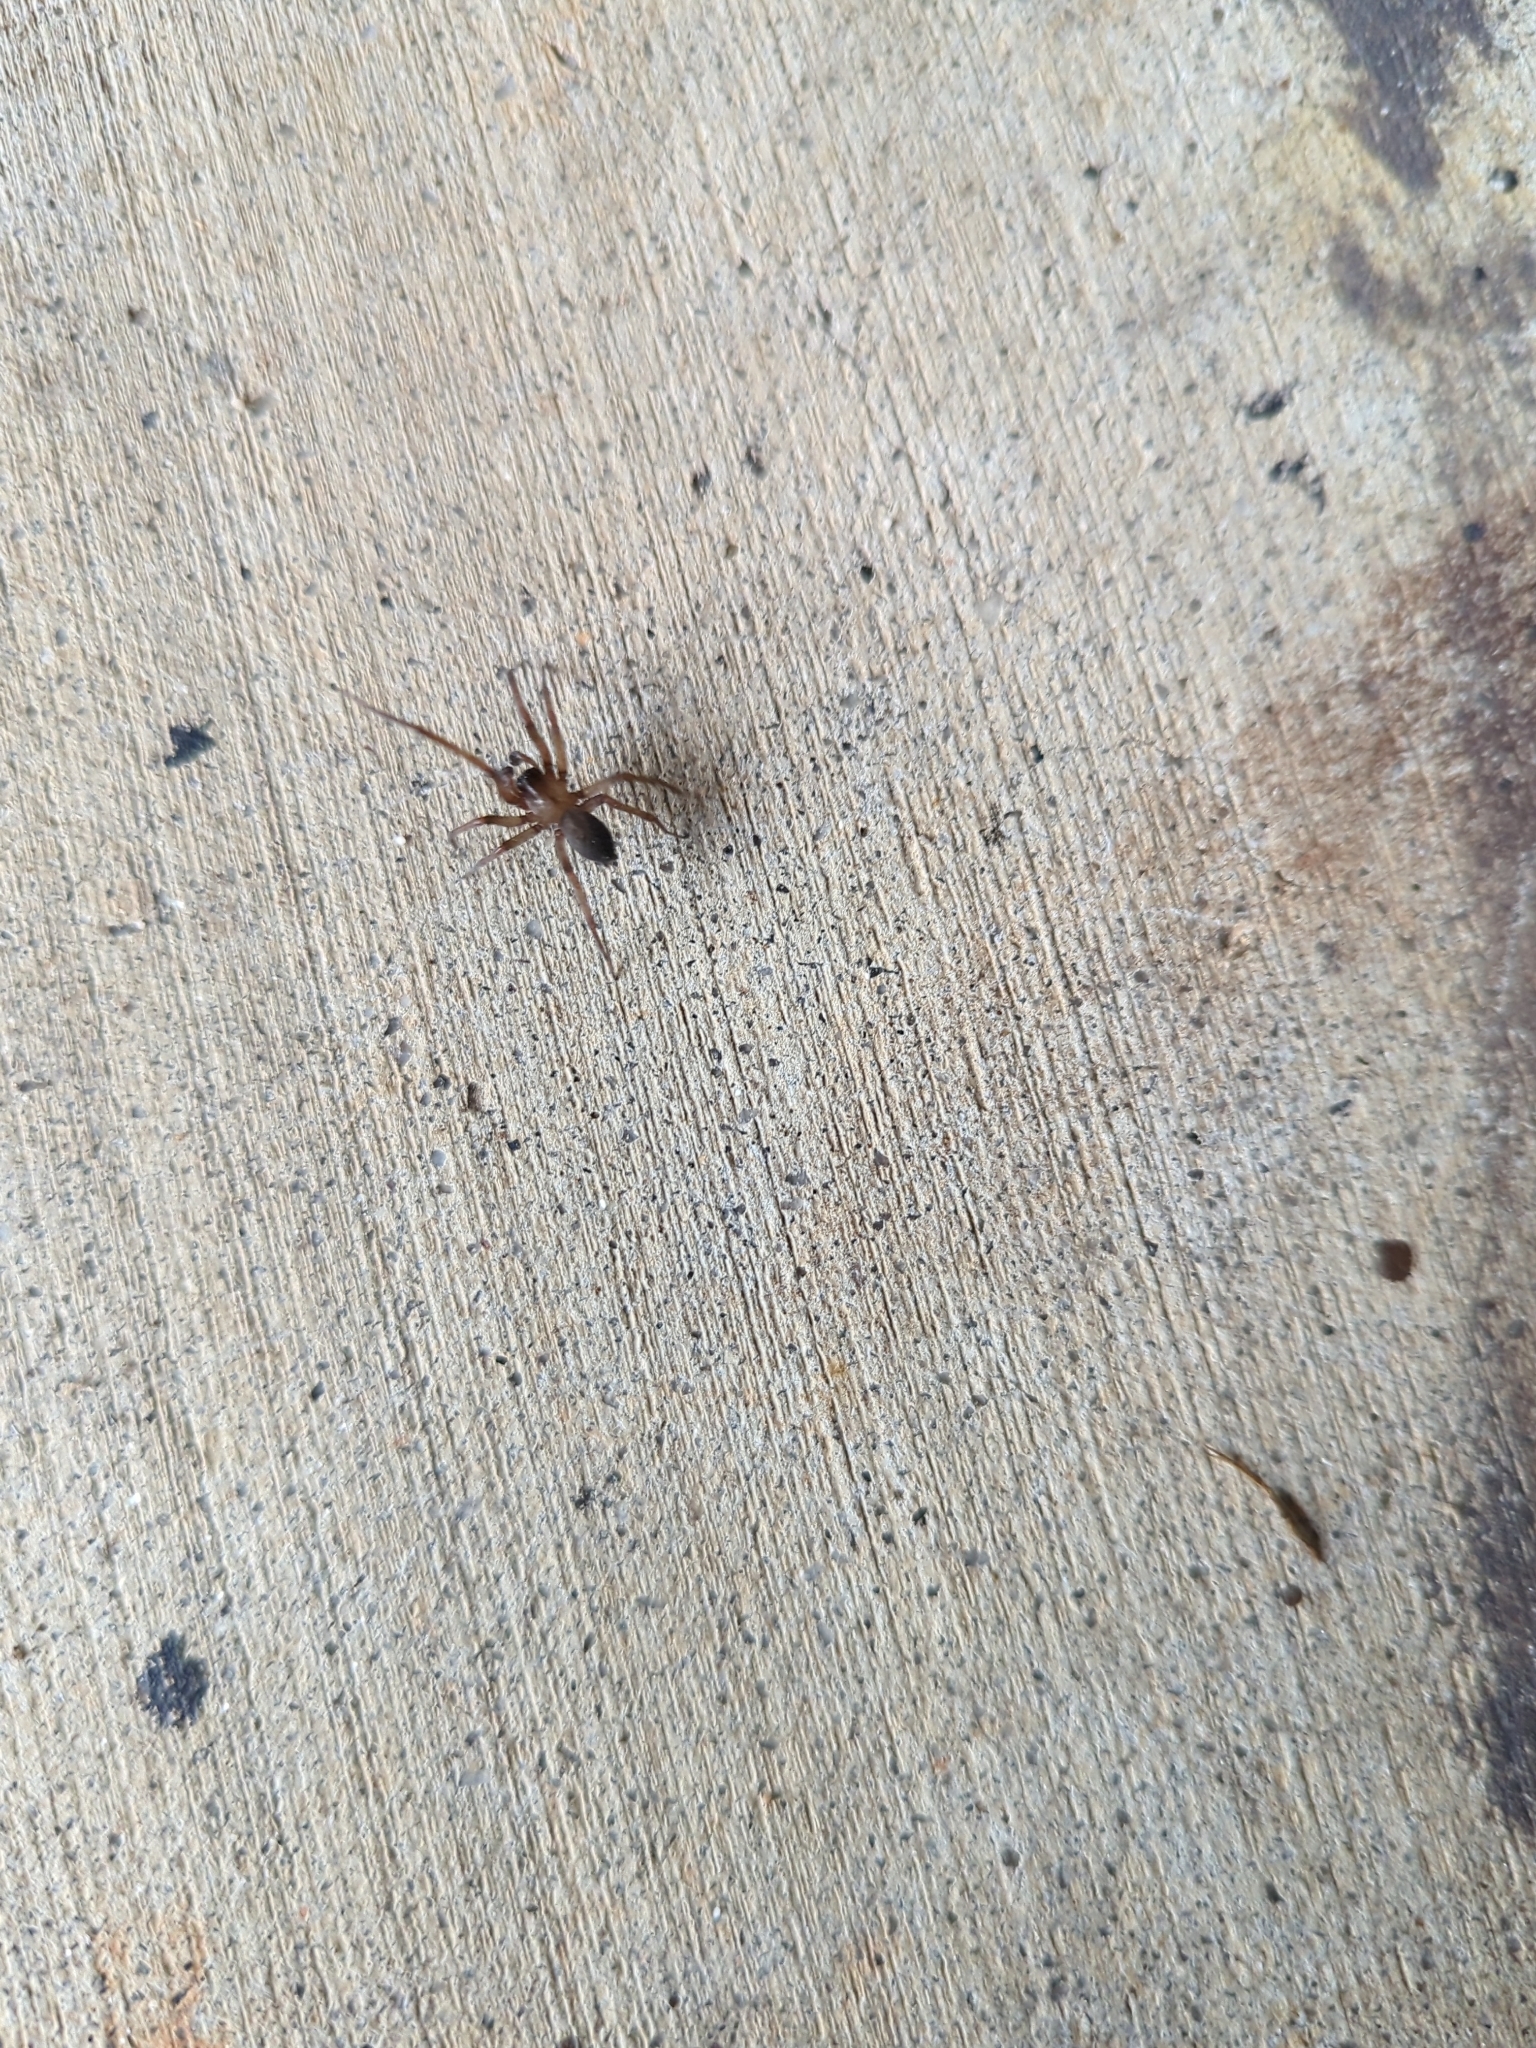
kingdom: Animalia
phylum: Arthropoda
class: Arachnida
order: Araneae
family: Desidae
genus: Metaltella
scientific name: Metaltella simoni
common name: Cribellate spider
